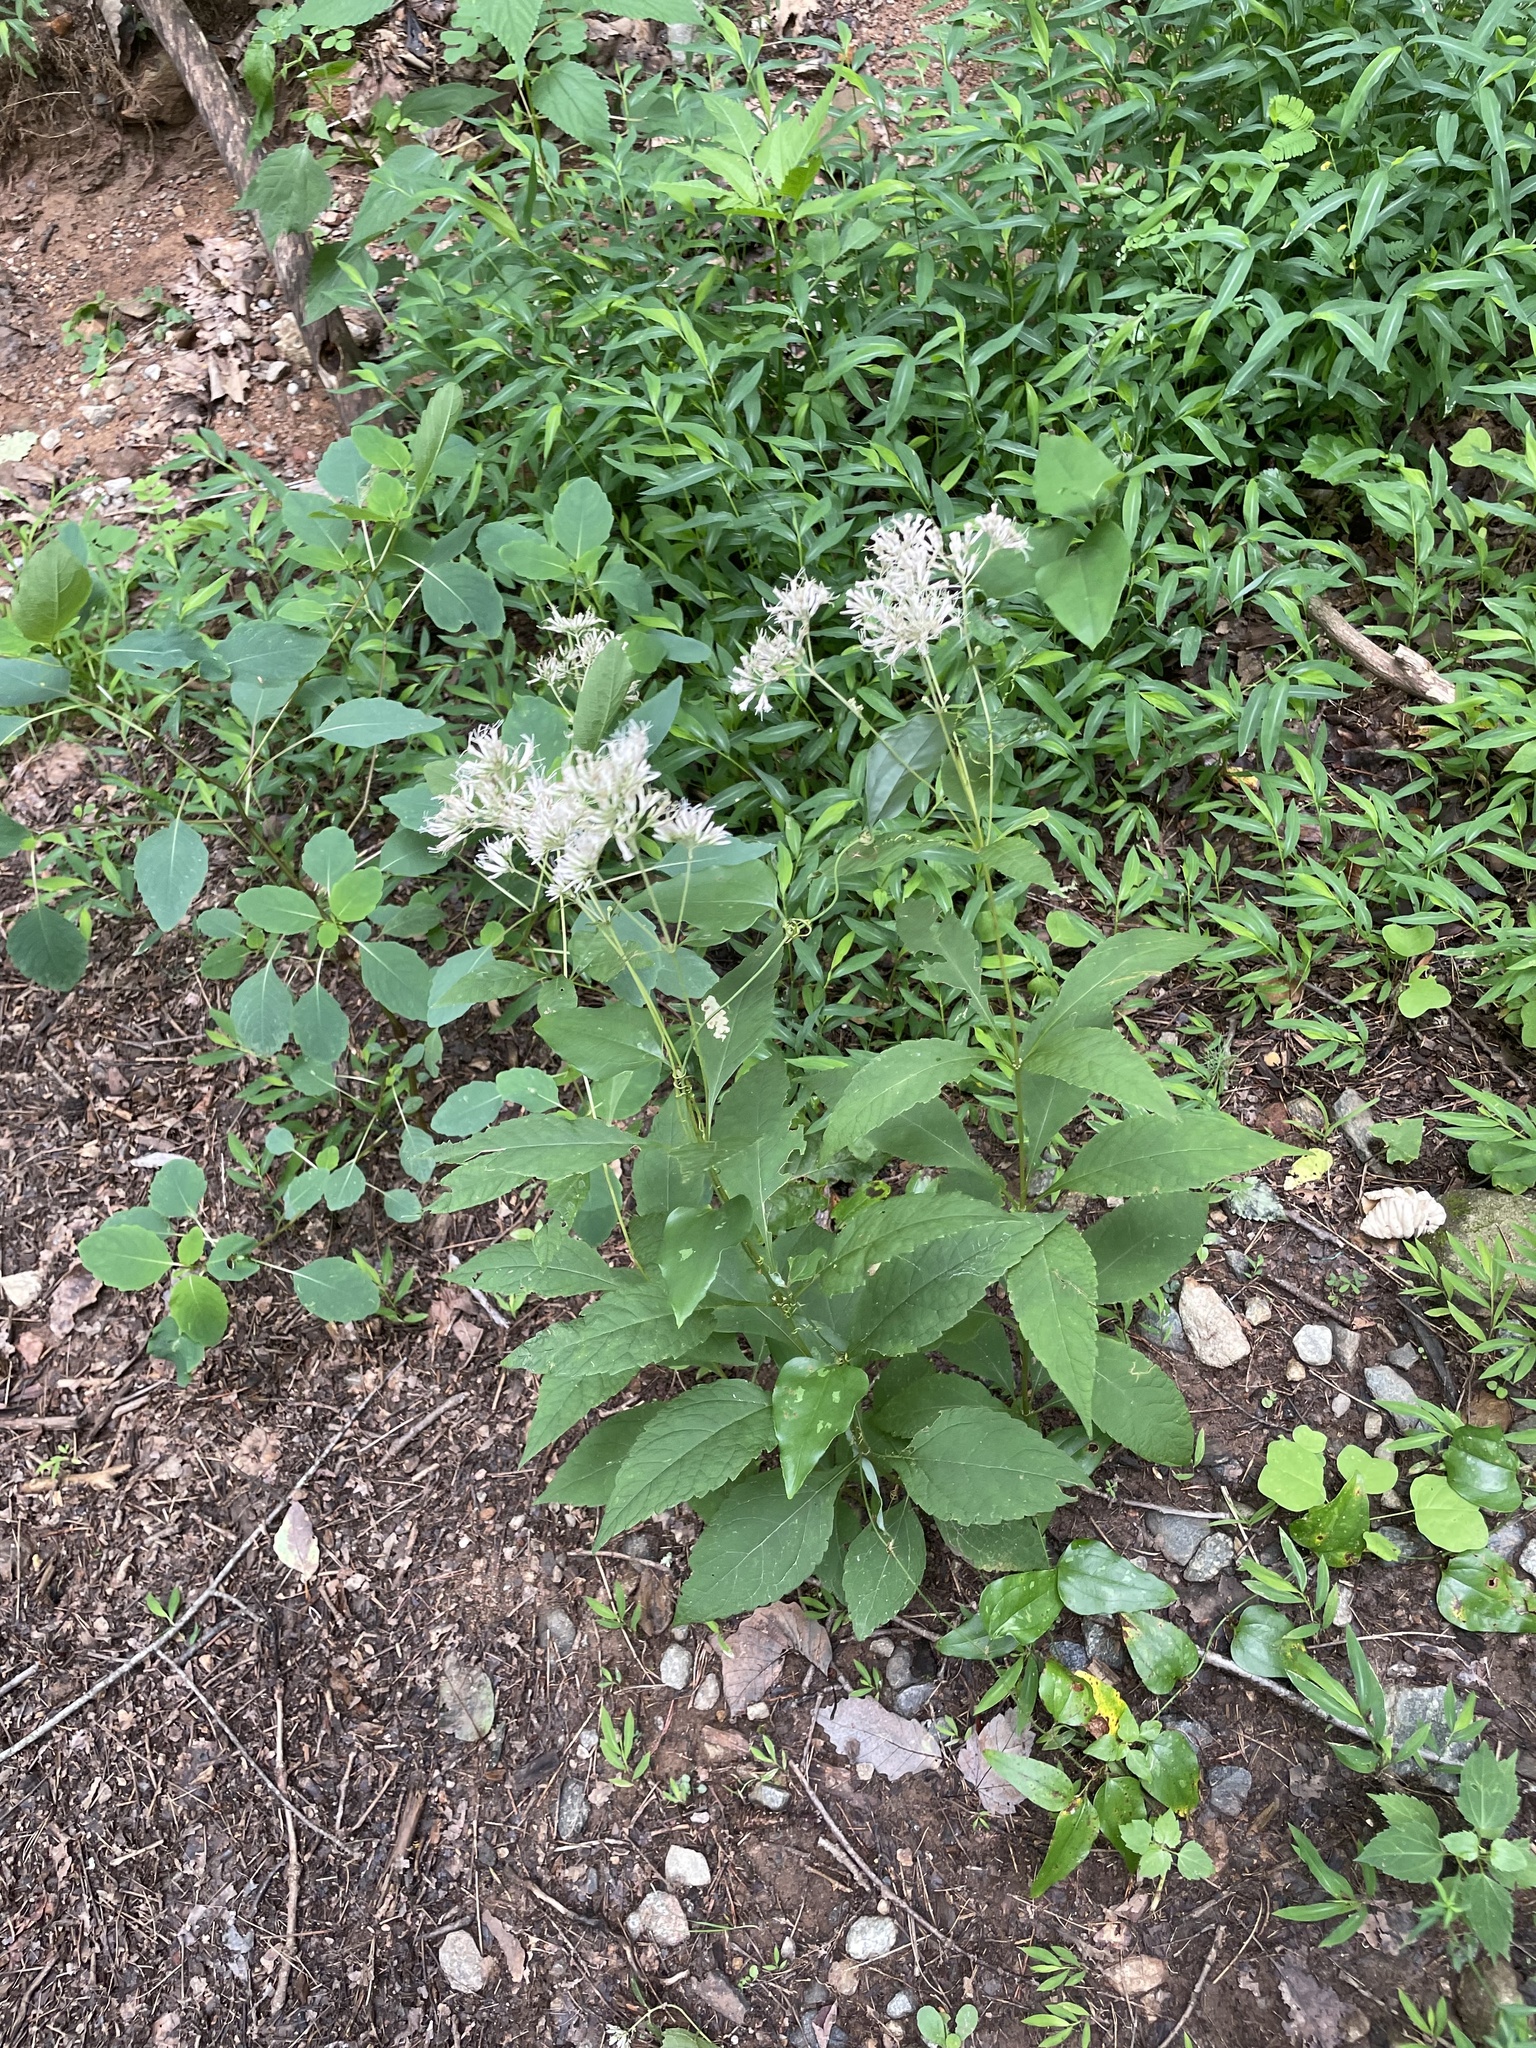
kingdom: Plantae
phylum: Tracheophyta
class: Magnoliopsida
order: Asterales
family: Asteraceae
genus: Eutrochium
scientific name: Eutrochium purpureum
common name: Gravelroot
